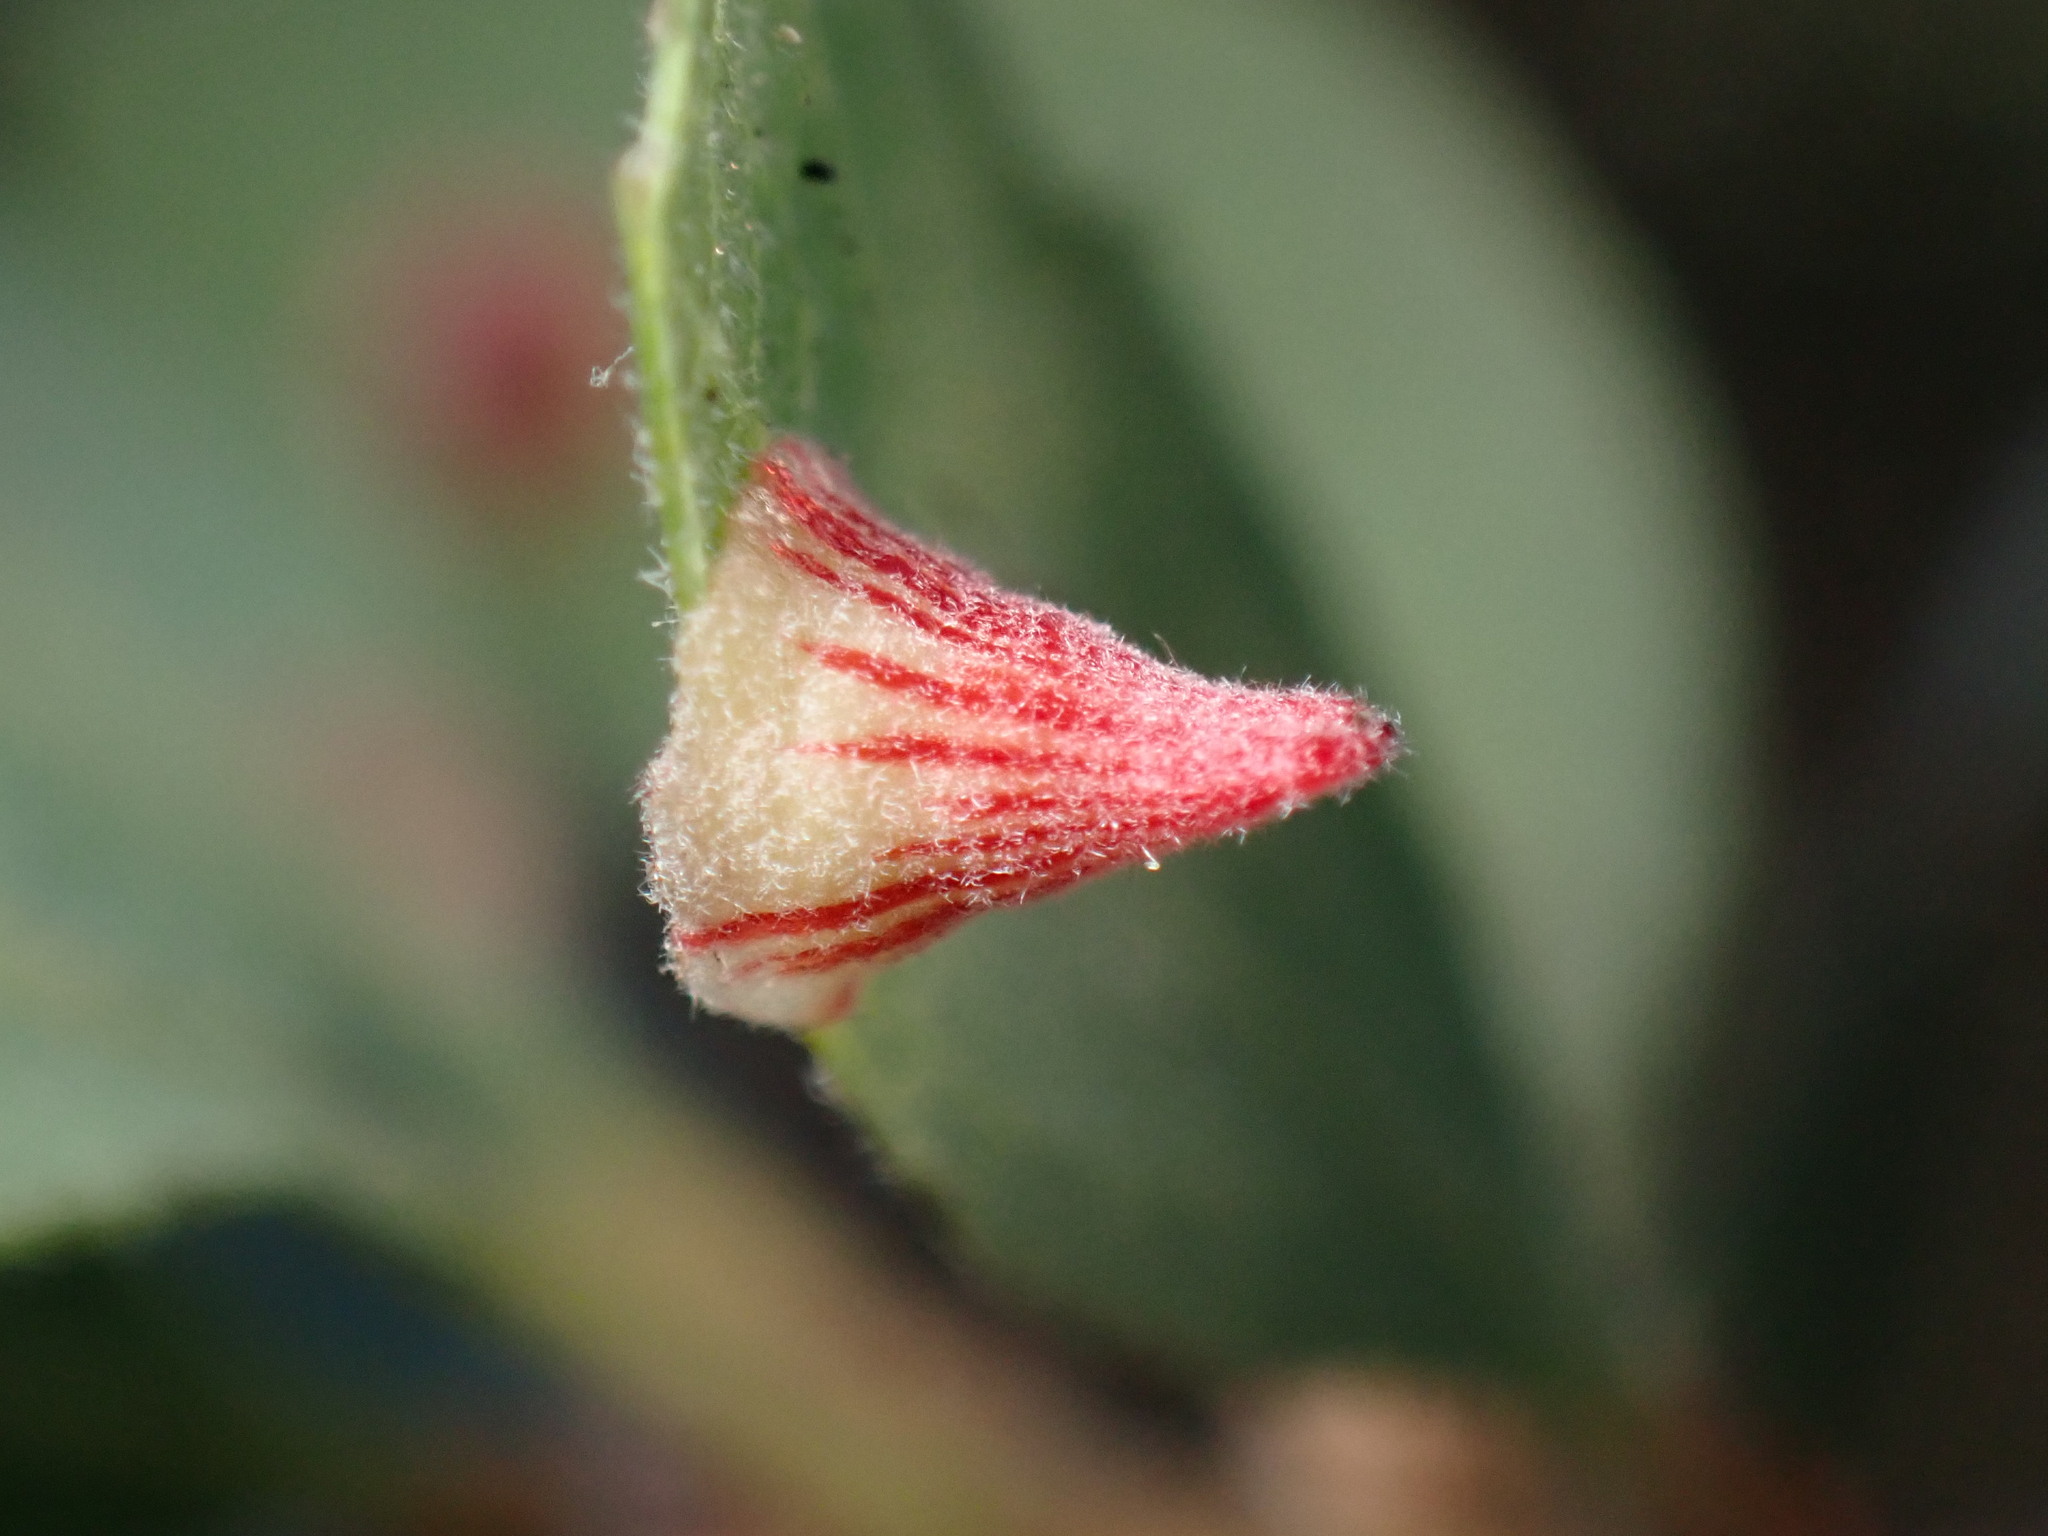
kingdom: Animalia
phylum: Arthropoda
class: Insecta
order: Hymenoptera
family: Cynipidae
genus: Andricus
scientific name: Andricus
